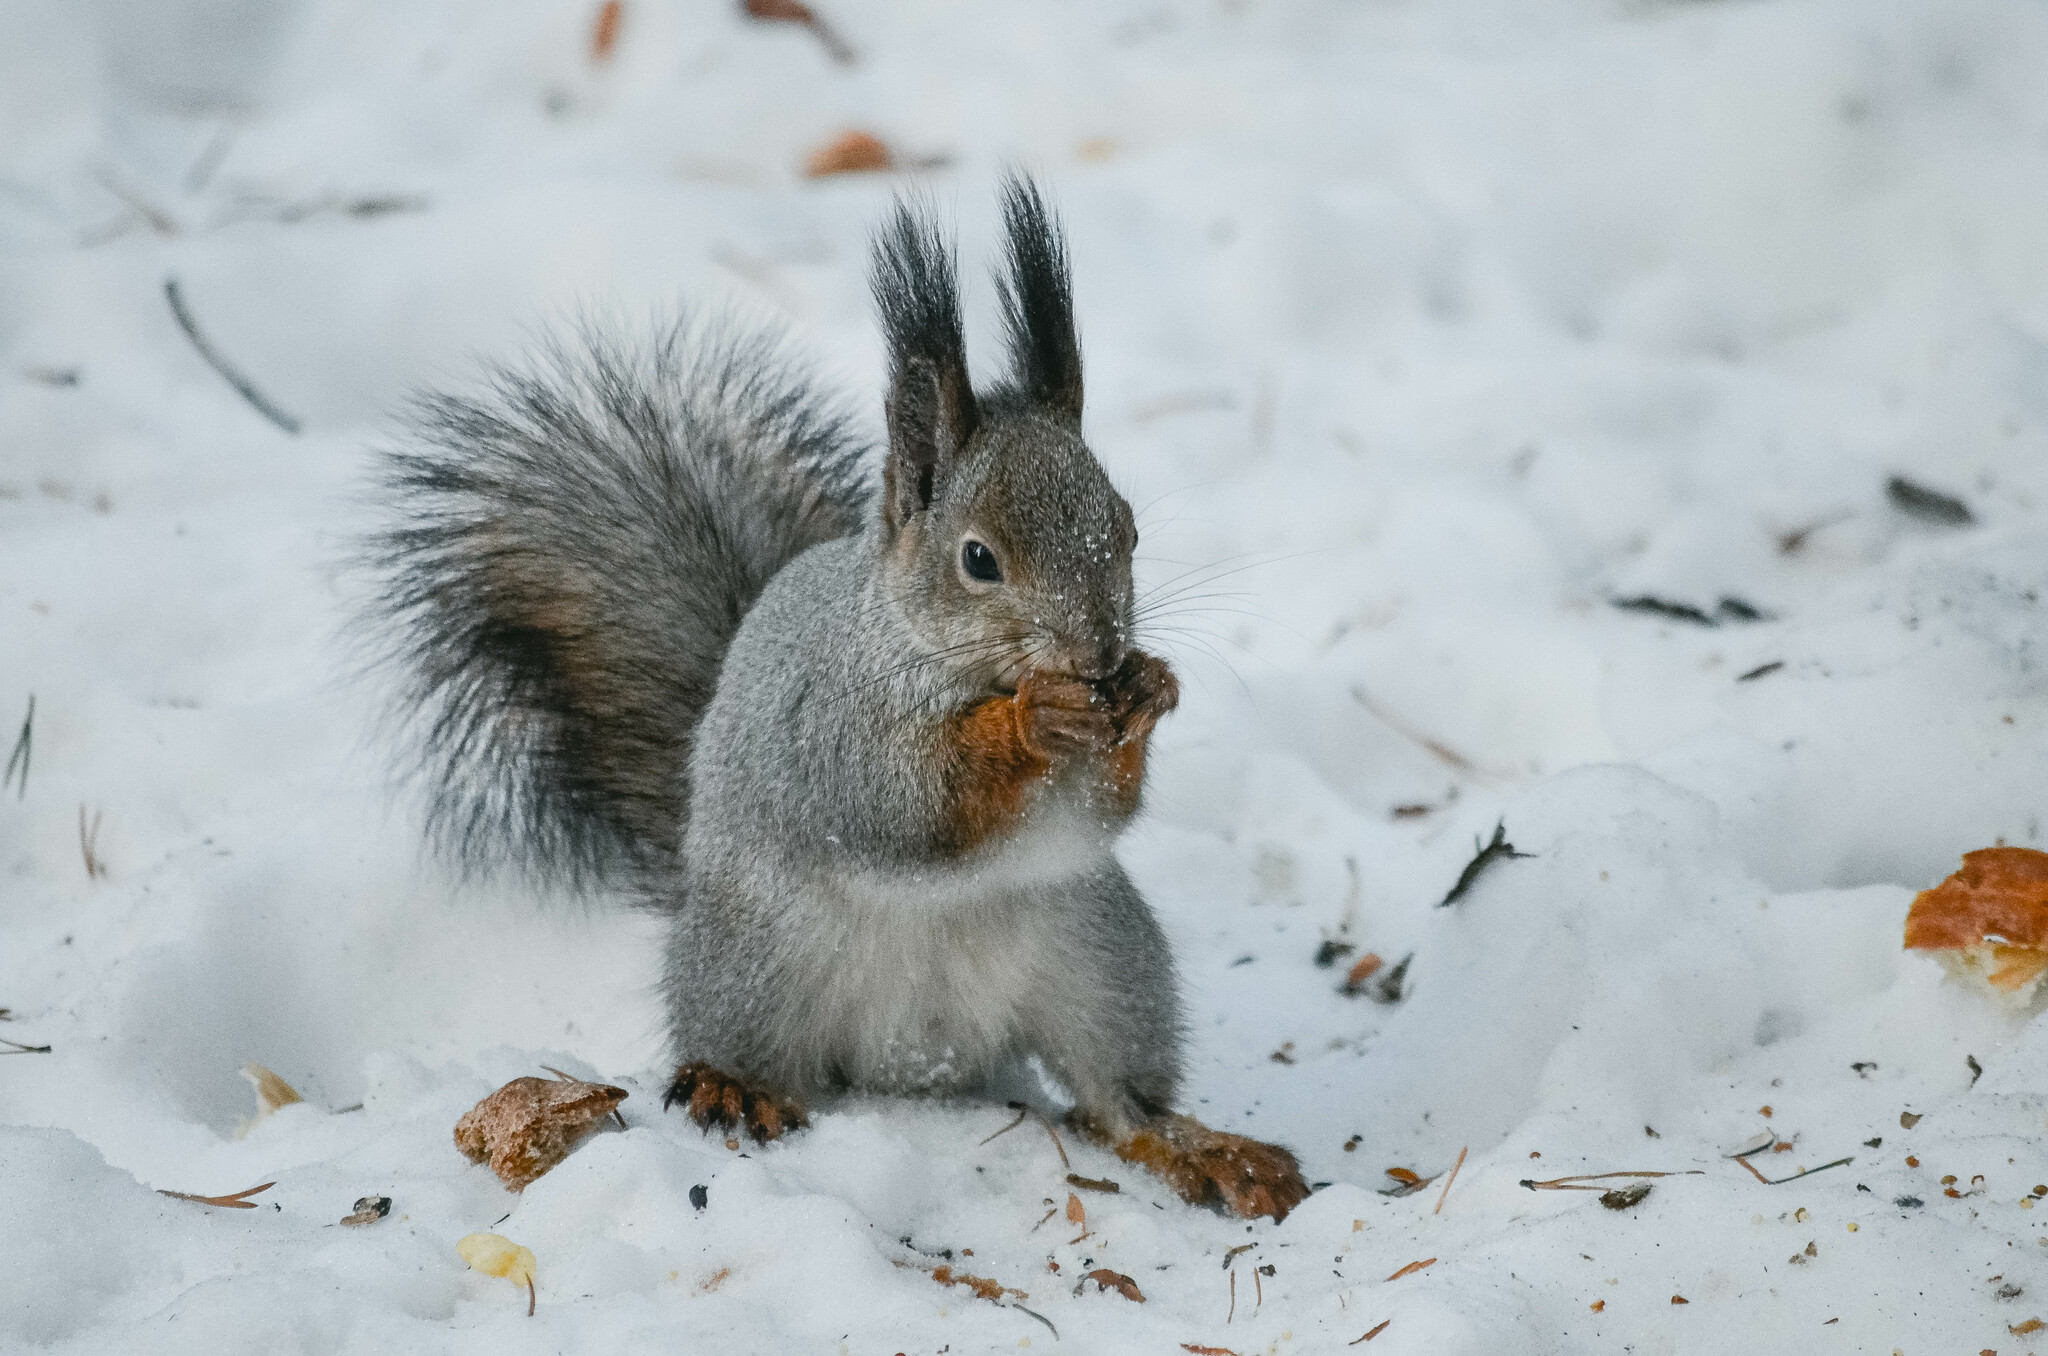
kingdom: Animalia
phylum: Chordata
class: Mammalia
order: Rodentia
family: Sciuridae
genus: Sciurus
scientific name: Sciurus vulgaris
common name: Eurasian red squirrel
